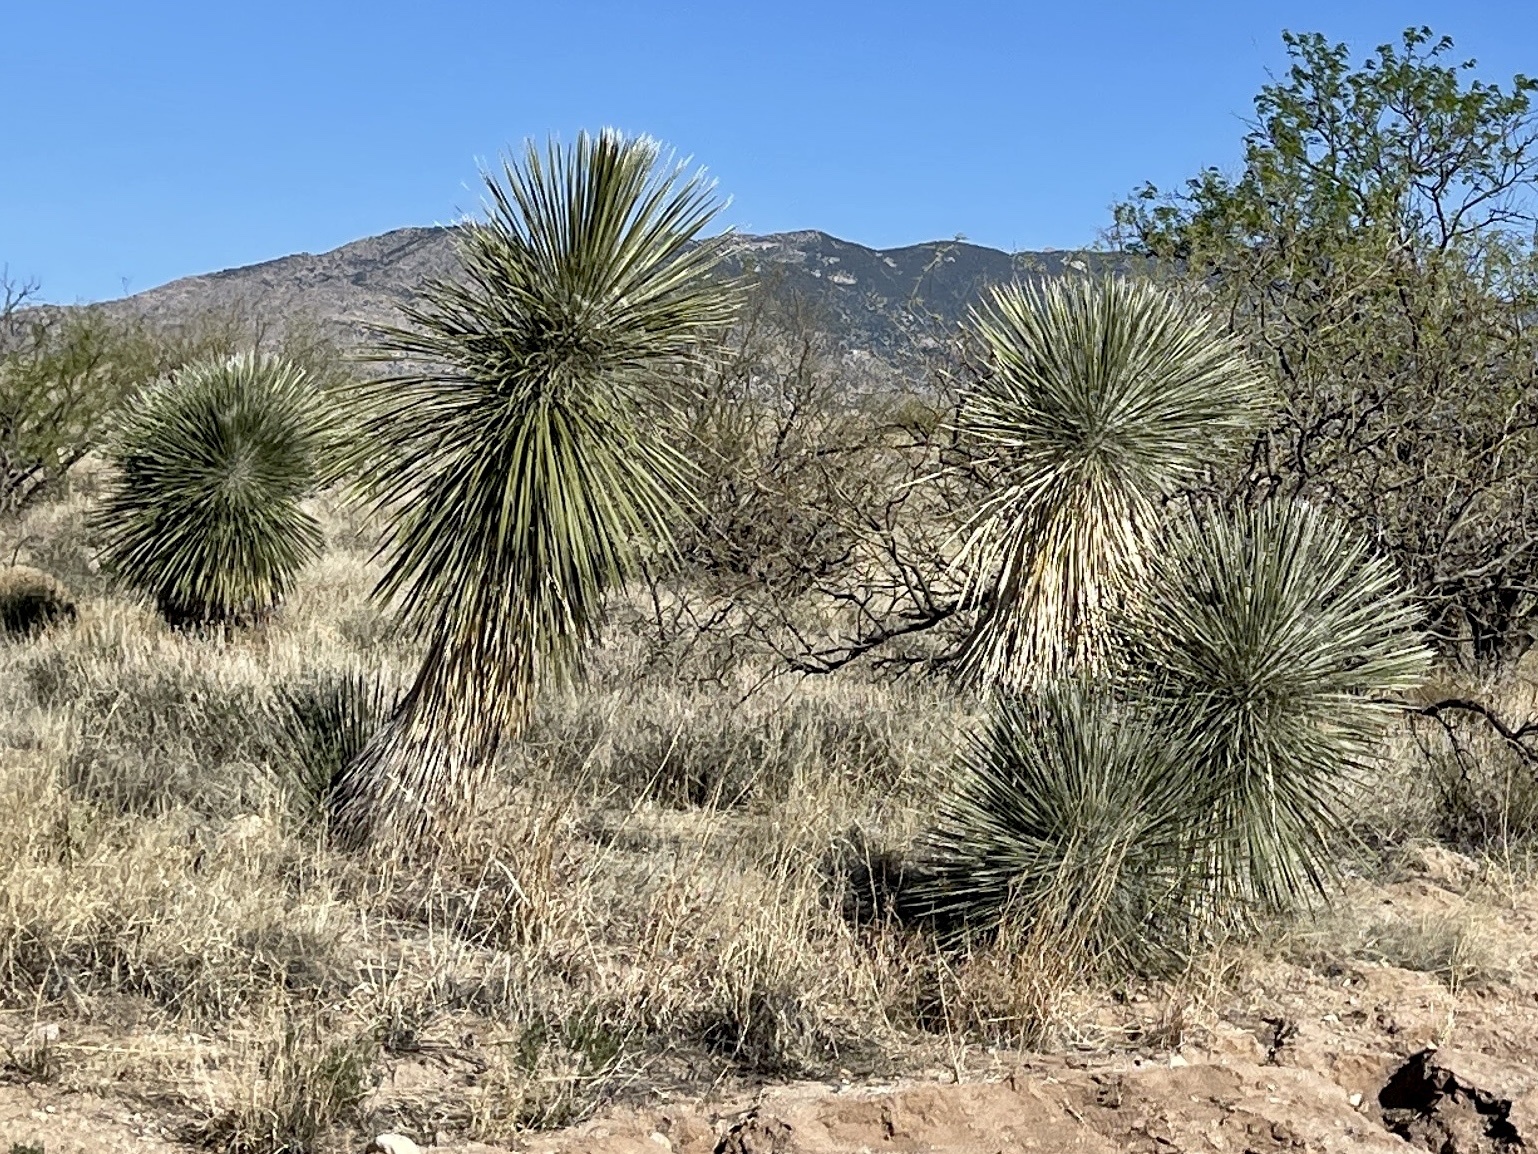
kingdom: Plantae
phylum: Tracheophyta
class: Liliopsida
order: Asparagales
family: Asparagaceae
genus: Yucca
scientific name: Yucca elata
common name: Palmella
